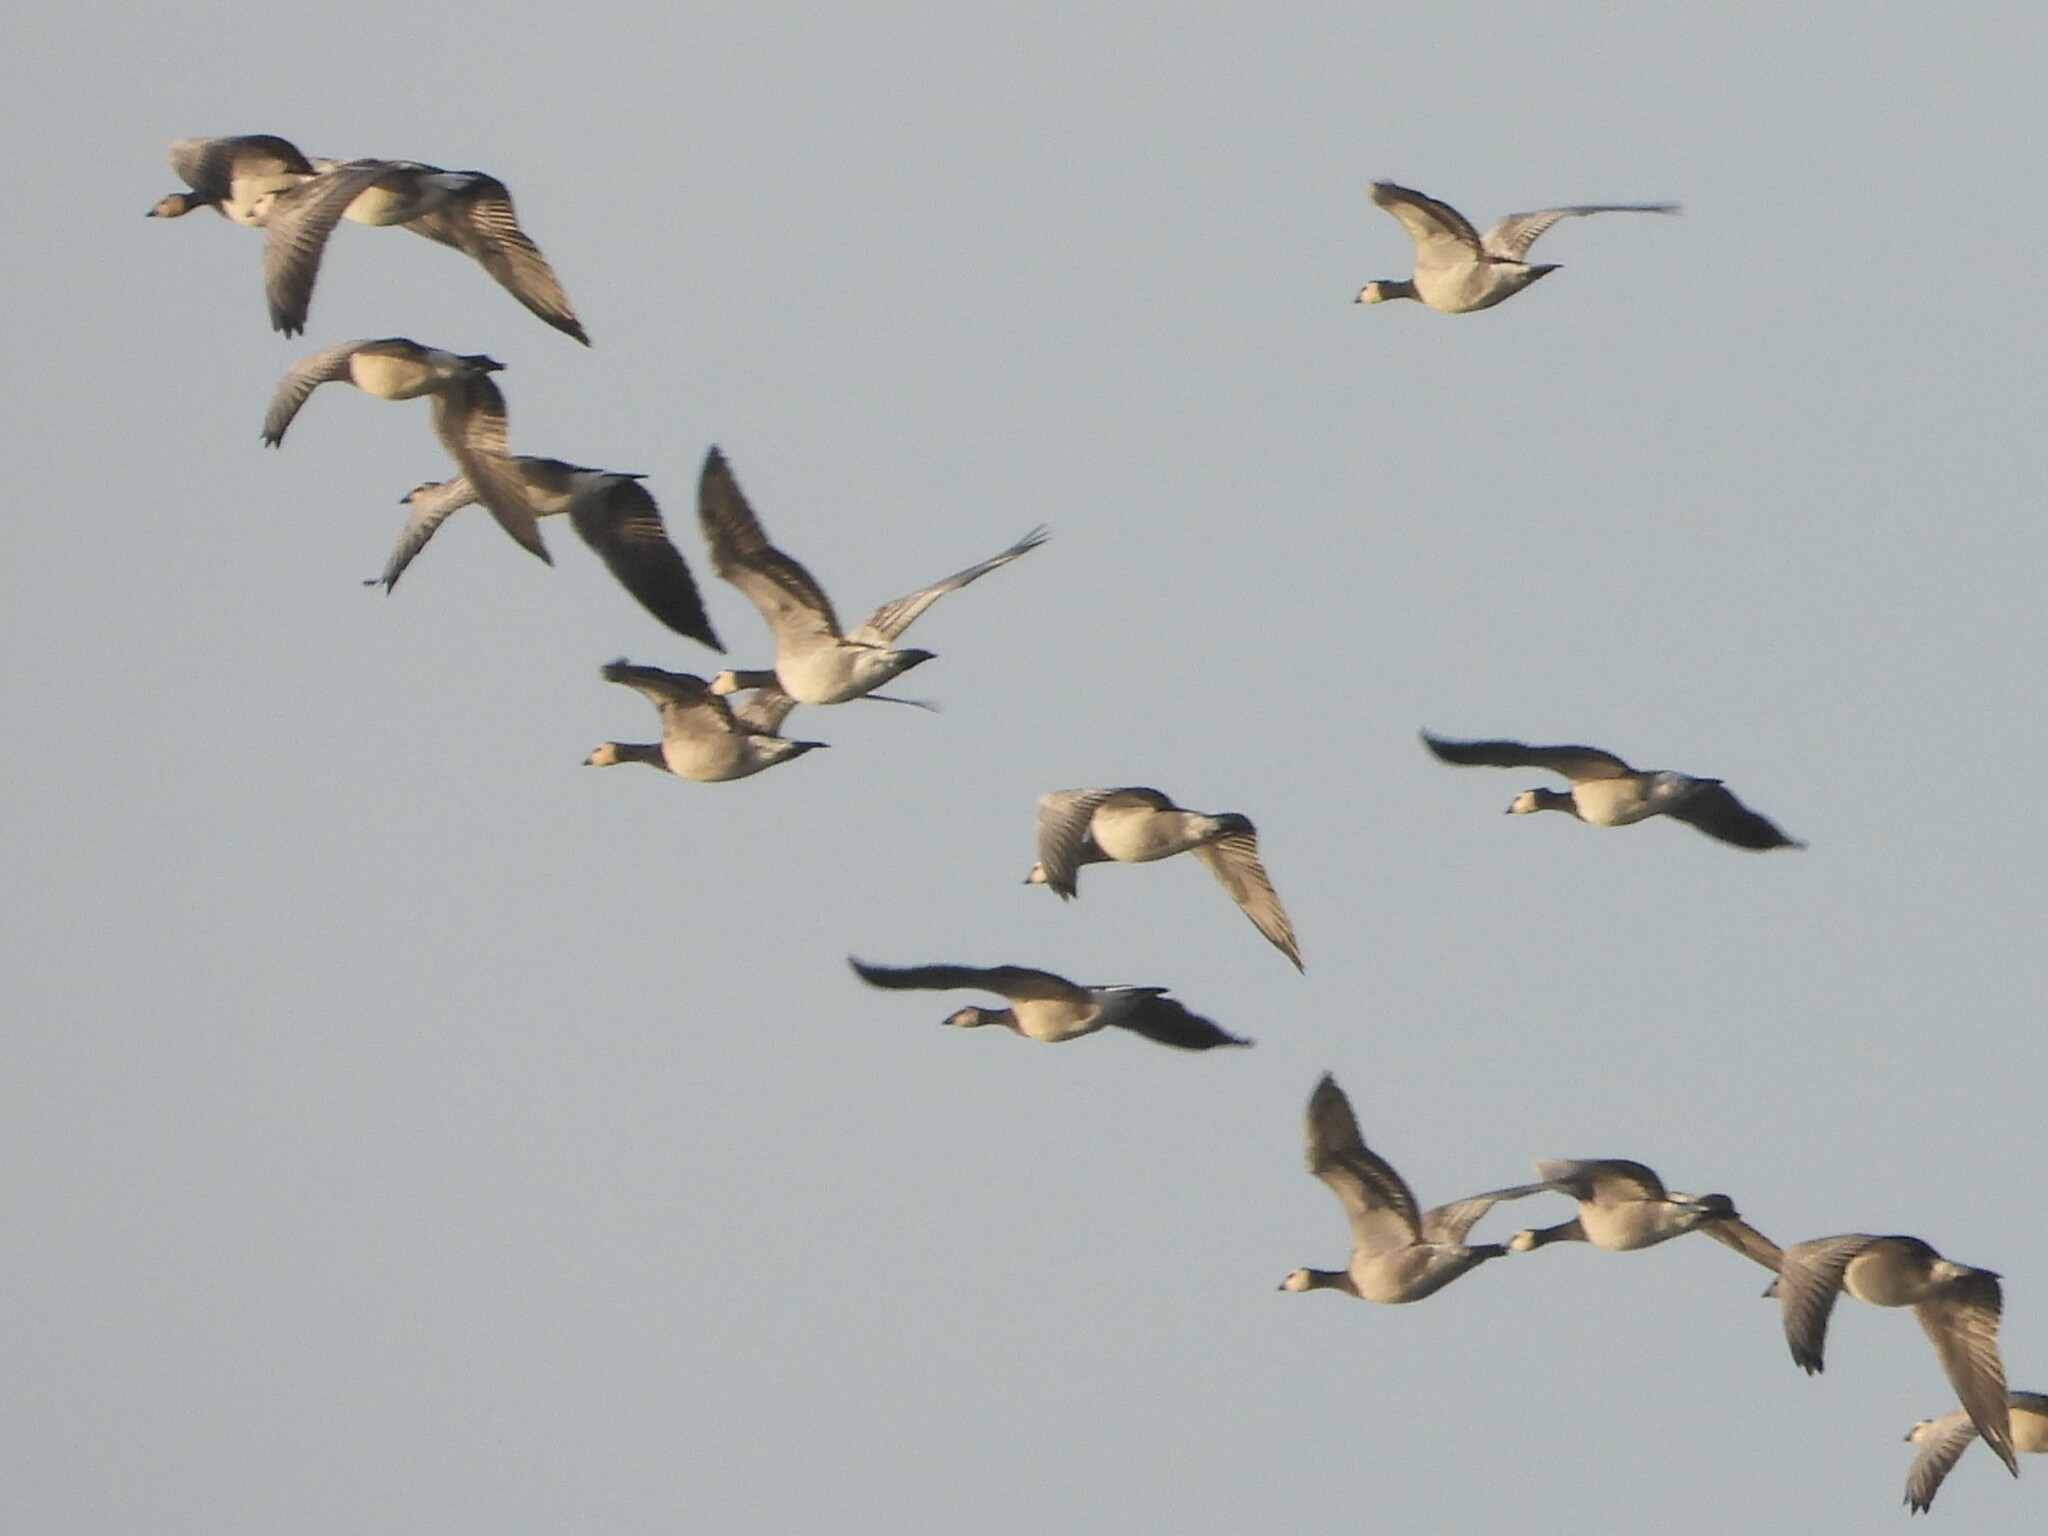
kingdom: Animalia
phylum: Chordata
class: Aves
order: Anseriformes
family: Anatidae
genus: Branta
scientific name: Branta leucopsis
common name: Barnacle goose
